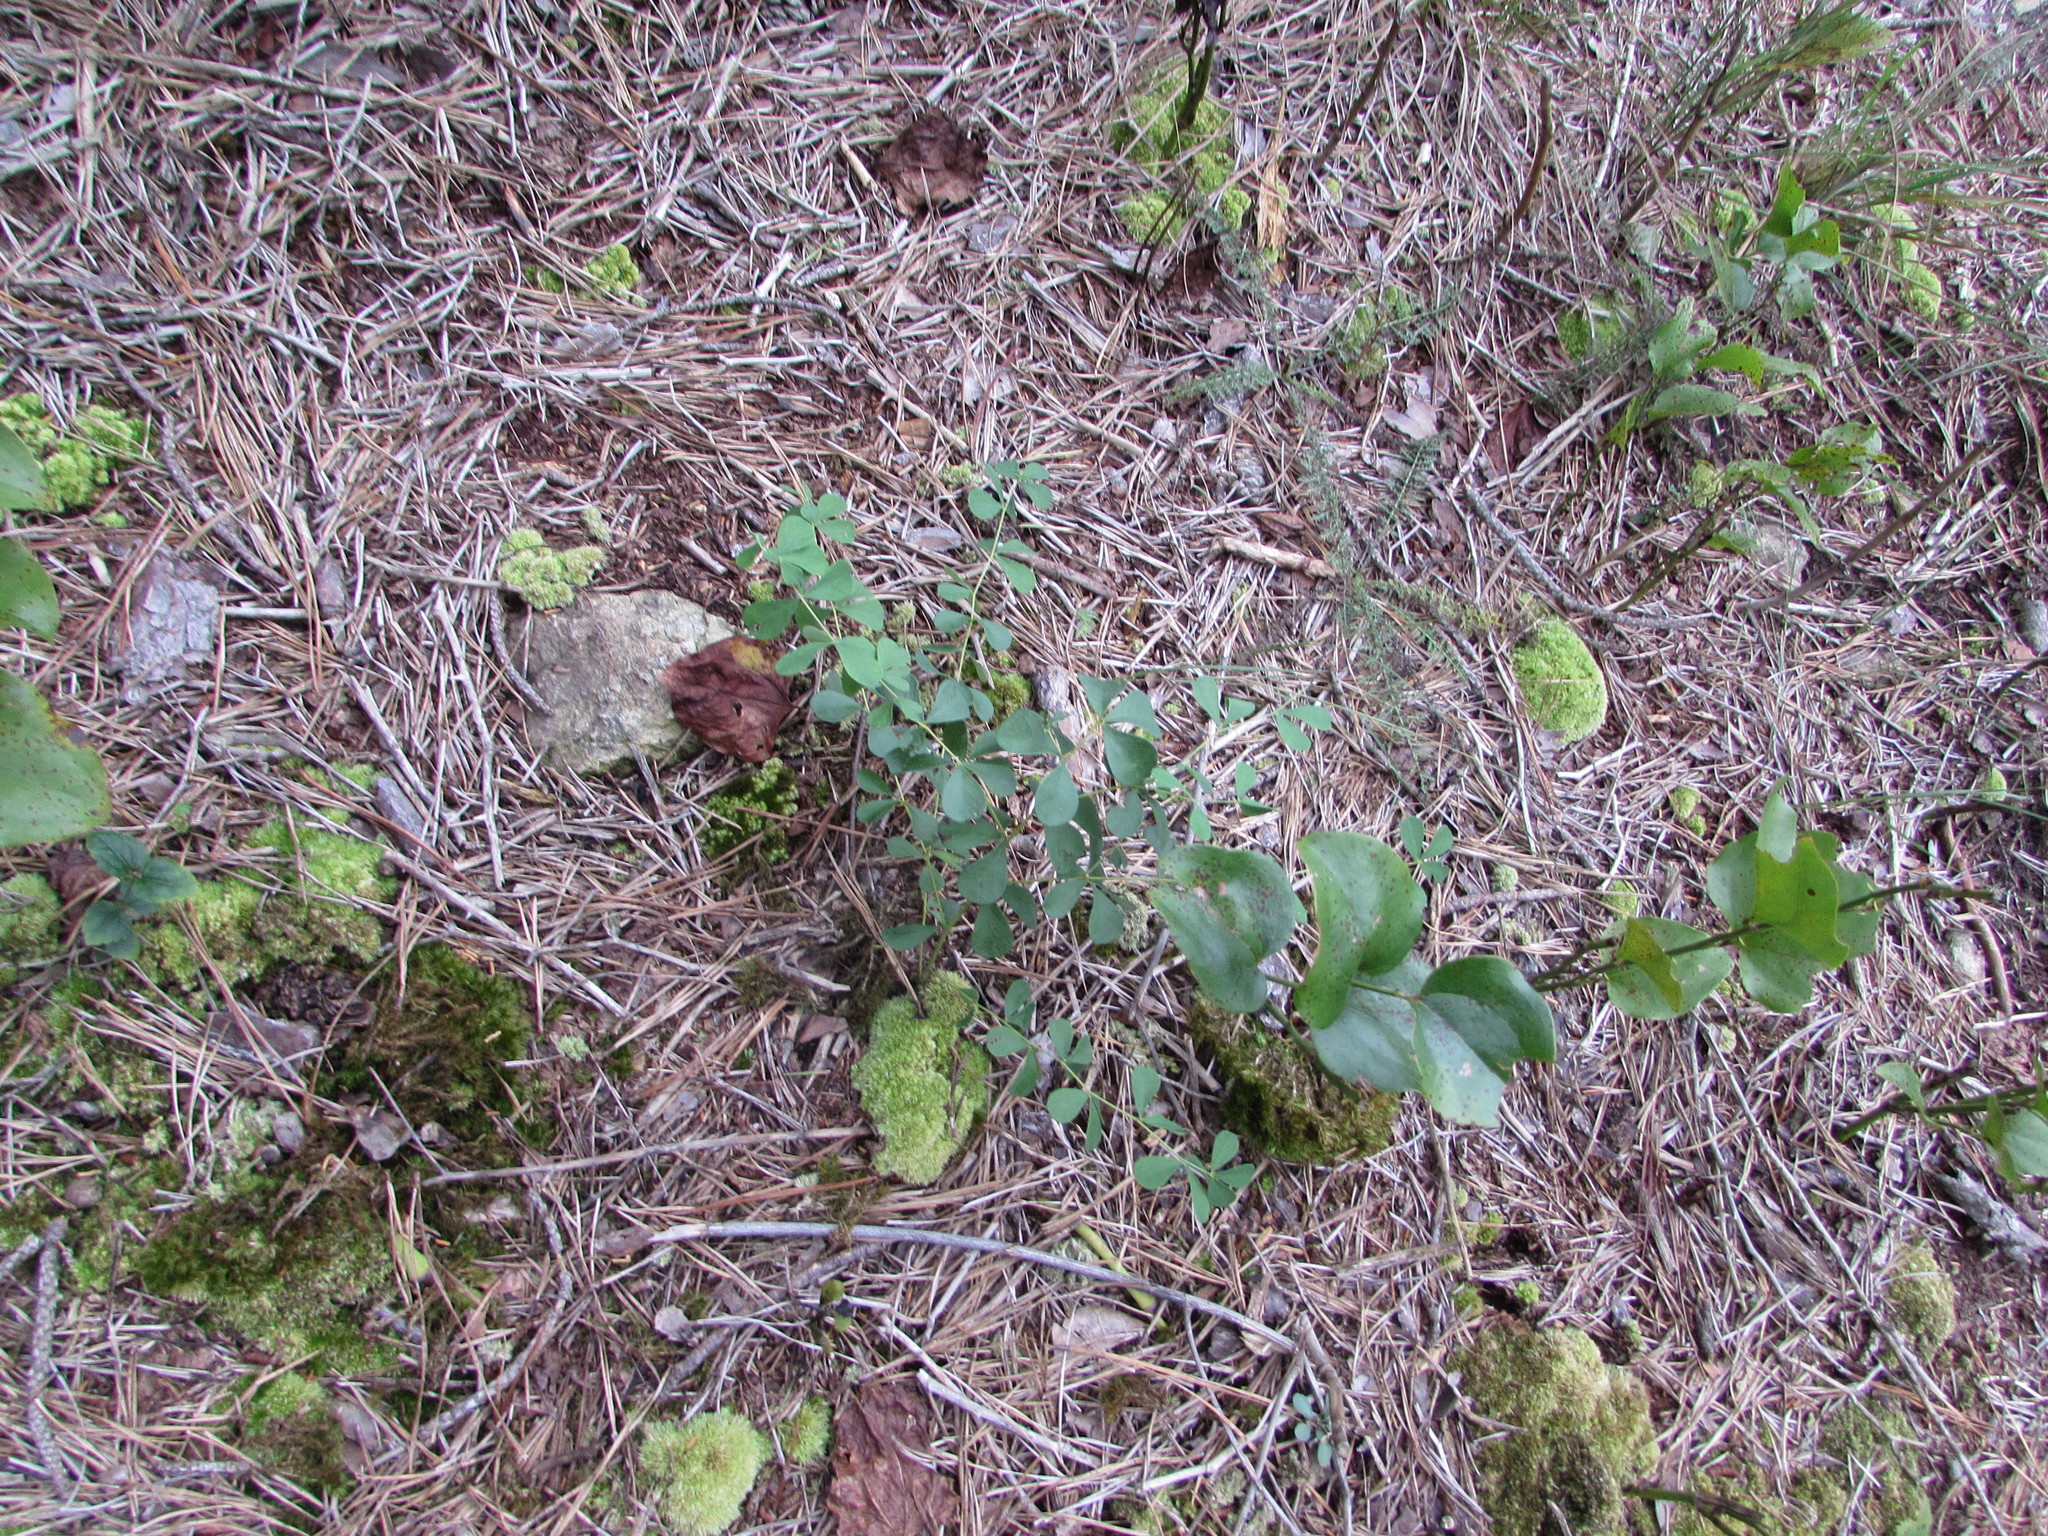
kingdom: Plantae
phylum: Tracheophyta
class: Magnoliopsida
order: Fabales
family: Fabaceae
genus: Baptisia
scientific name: Baptisia tinctoria
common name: Wild indigo
